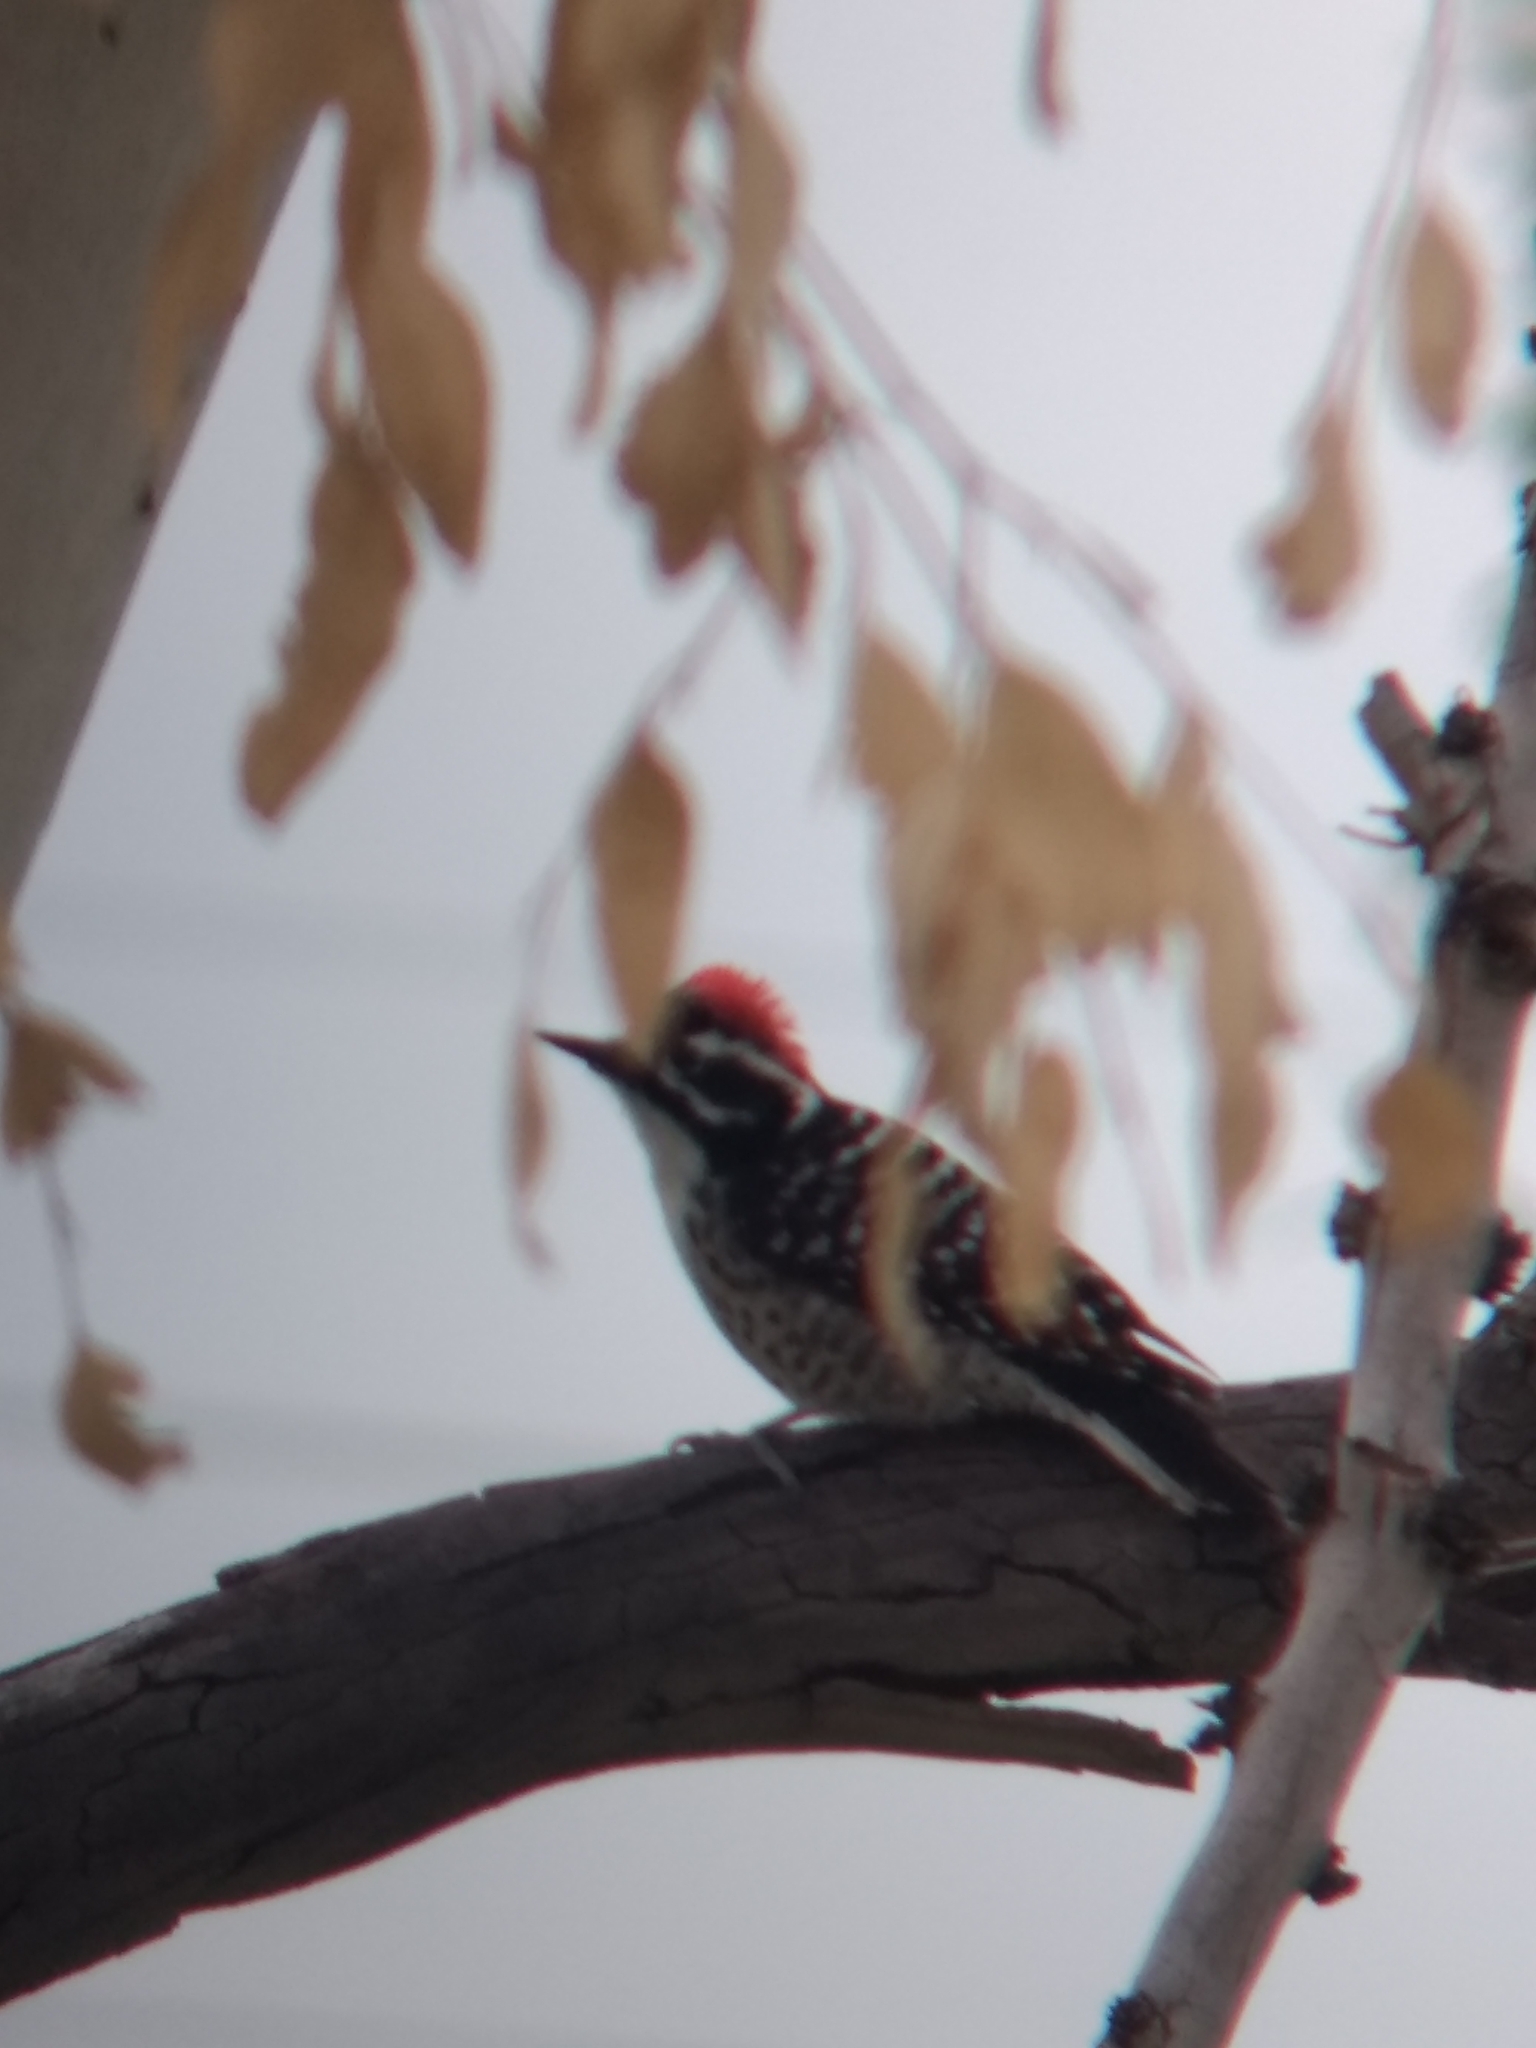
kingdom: Animalia
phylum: Chordata
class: Aves
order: Piciformes
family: Picidae
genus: Dryobates
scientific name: Dryobates nuttallii
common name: Nuttall's woodpecker
